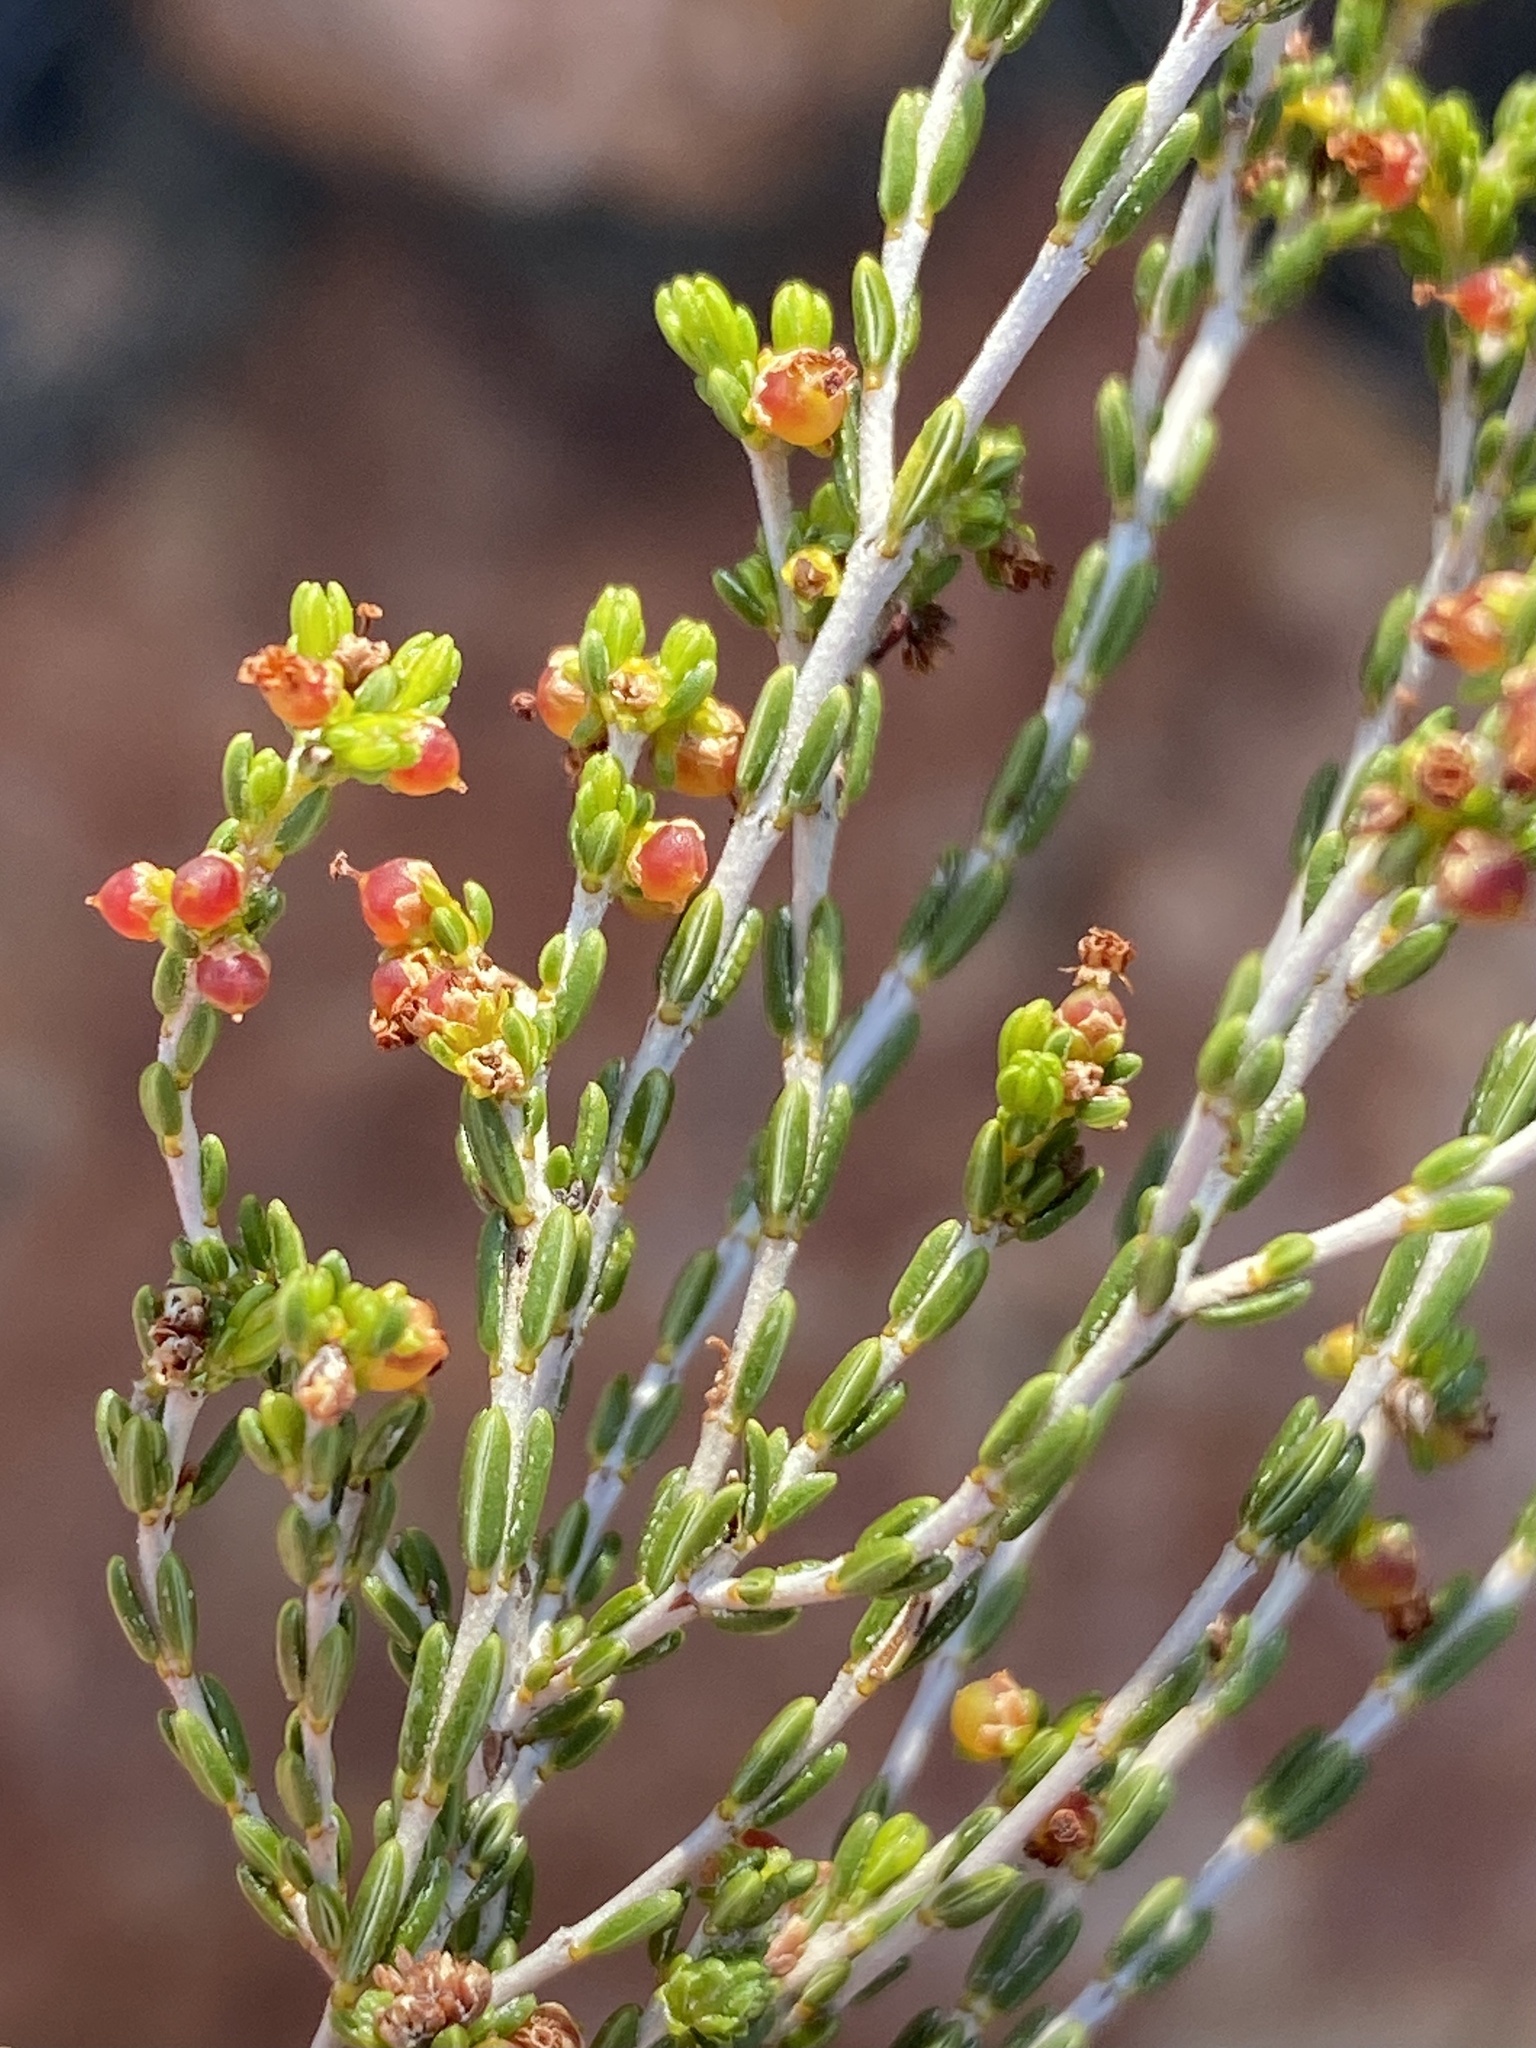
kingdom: Plantae
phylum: Tracheophyta
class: Magnoliopsida
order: Malvales
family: Thymelaeaceae
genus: Passerina
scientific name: Passerina montana
